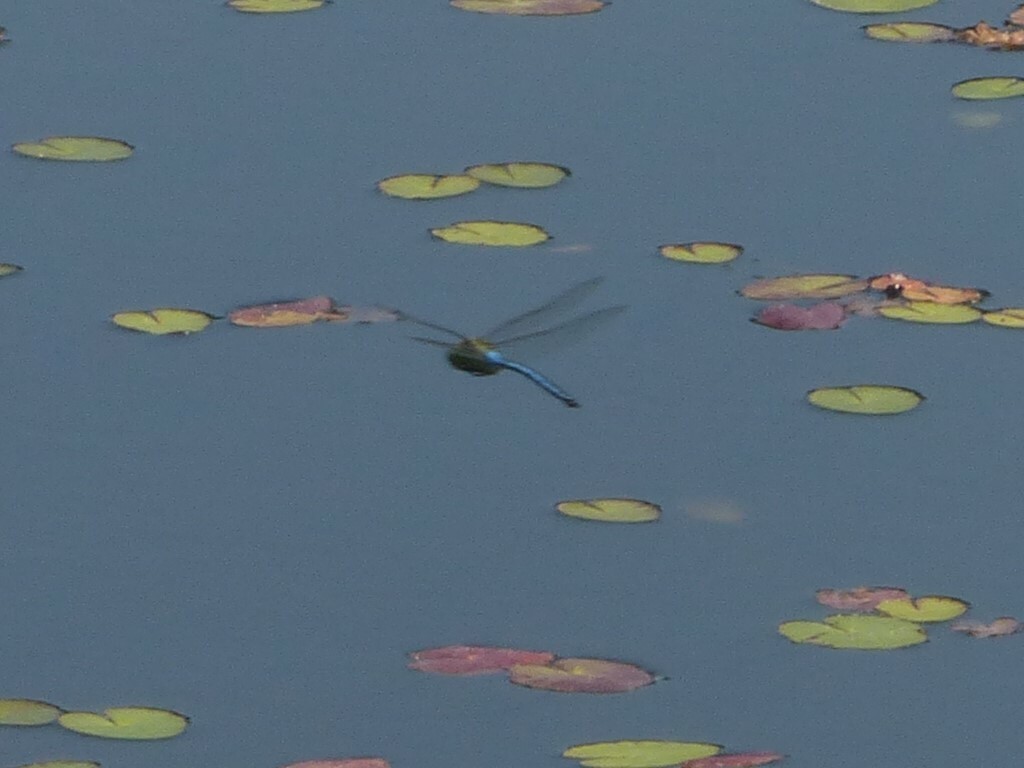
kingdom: Animalia
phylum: Arthropoda
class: Insecta
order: Odonata
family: Aeshnidae
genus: Anax
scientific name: Anax imperator
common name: Emperor dragonfly
